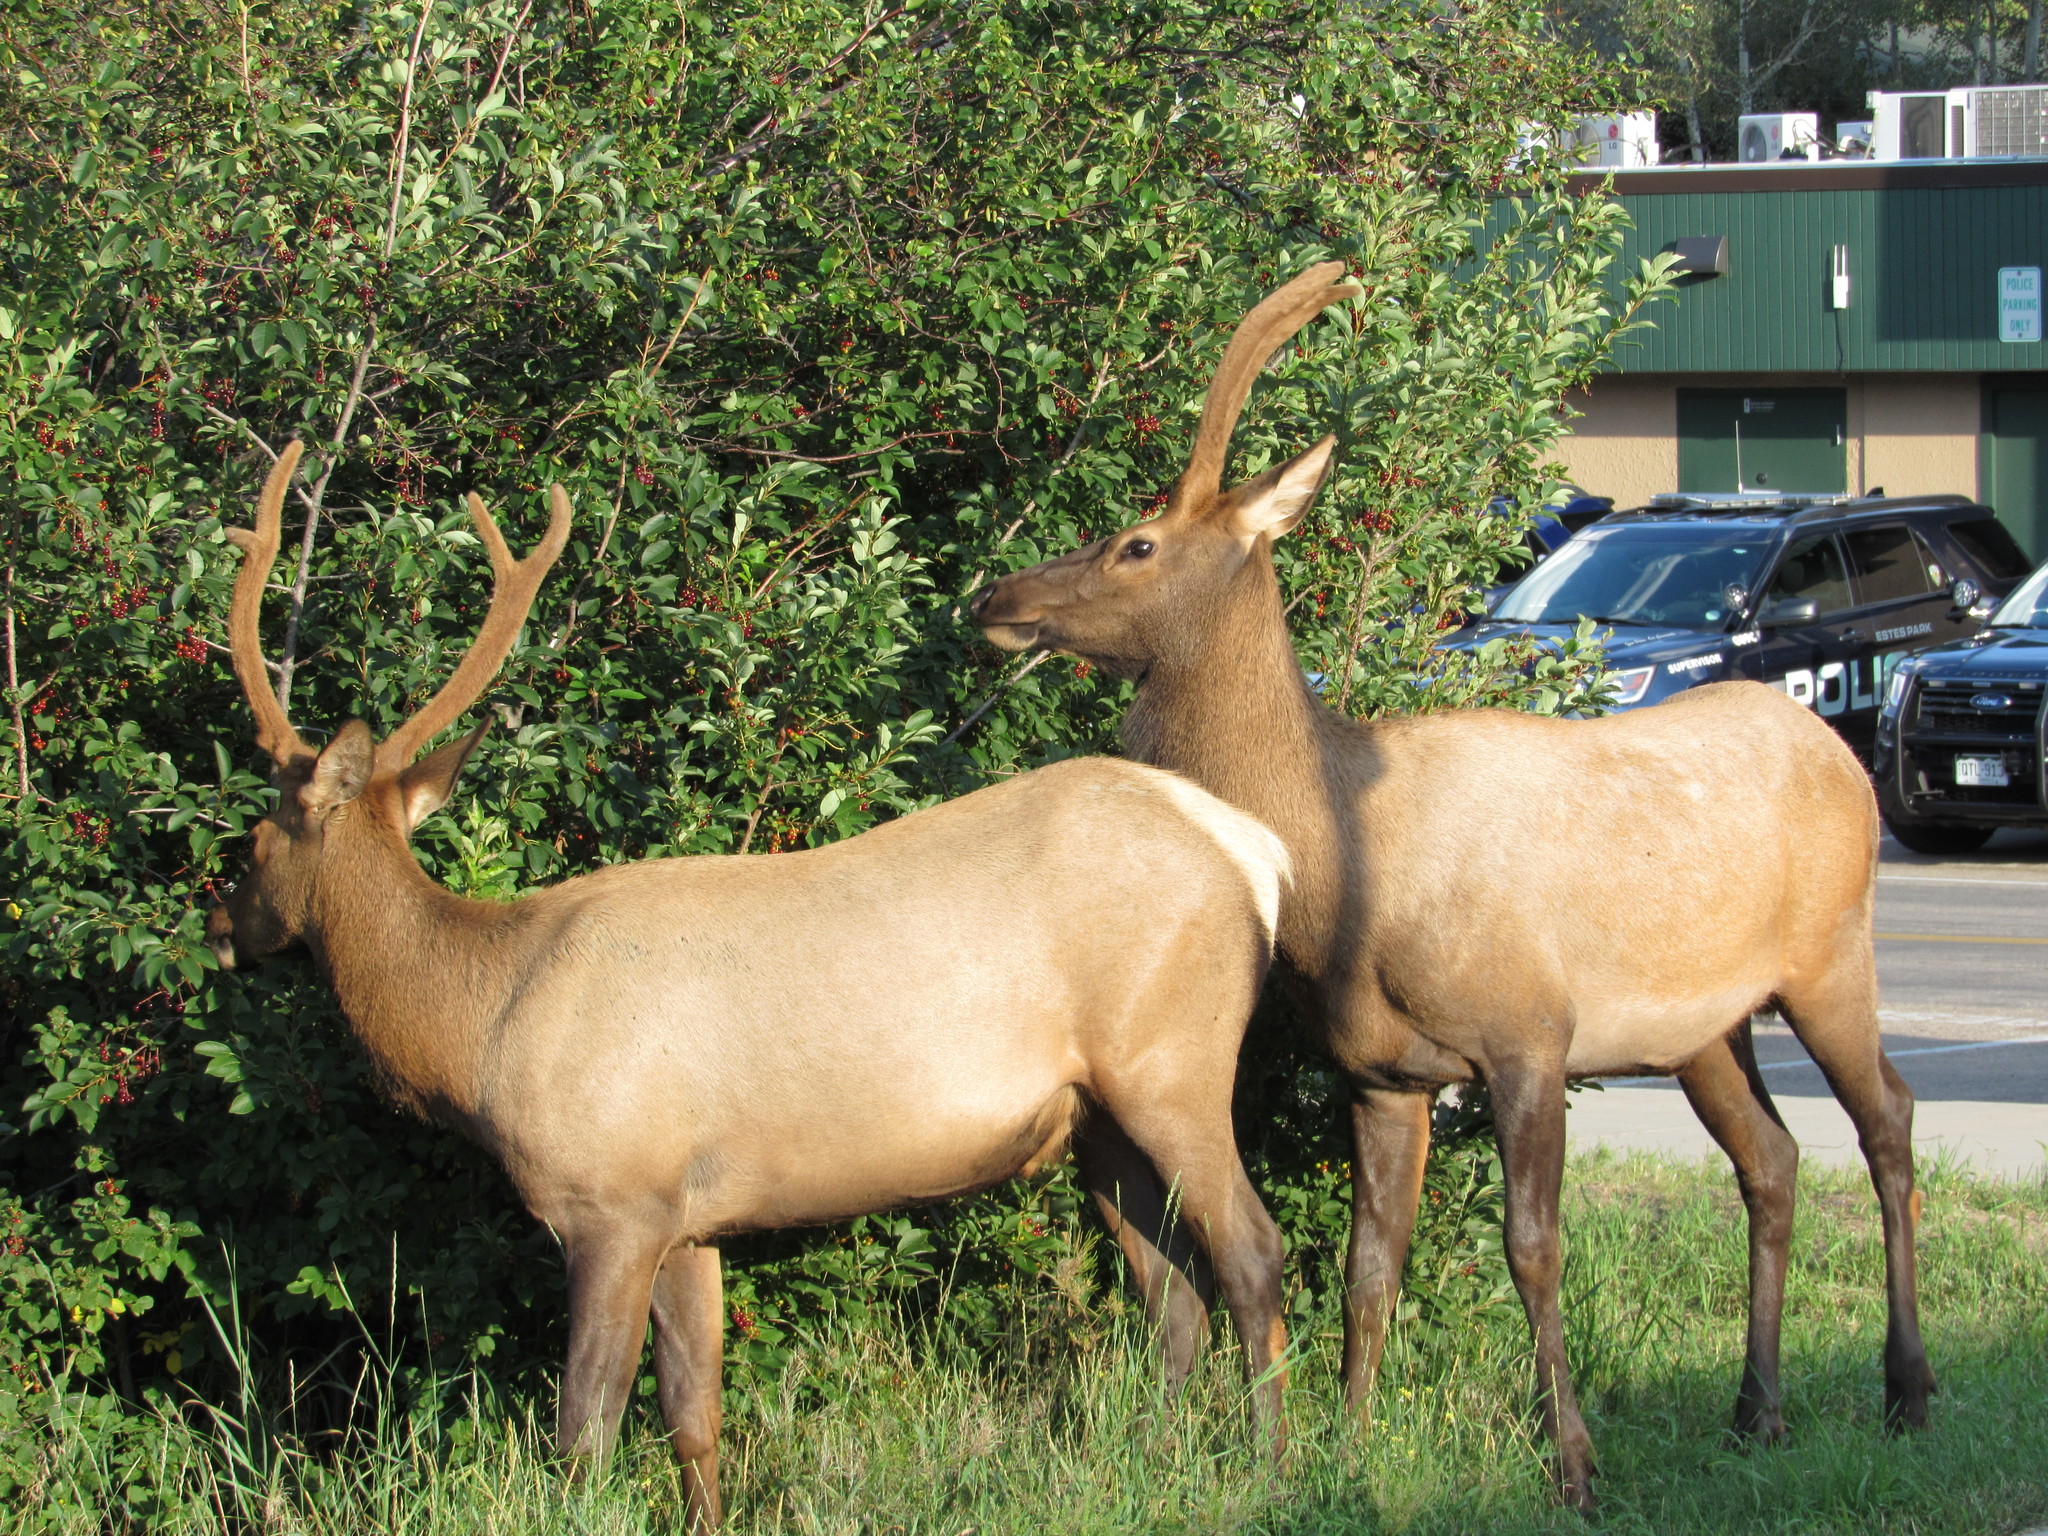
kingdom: Animalia
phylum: Chordata
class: Mammalia
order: Artiodactyla
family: Cervidae
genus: Cervus
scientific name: Cervus elaphus
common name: Red deer
